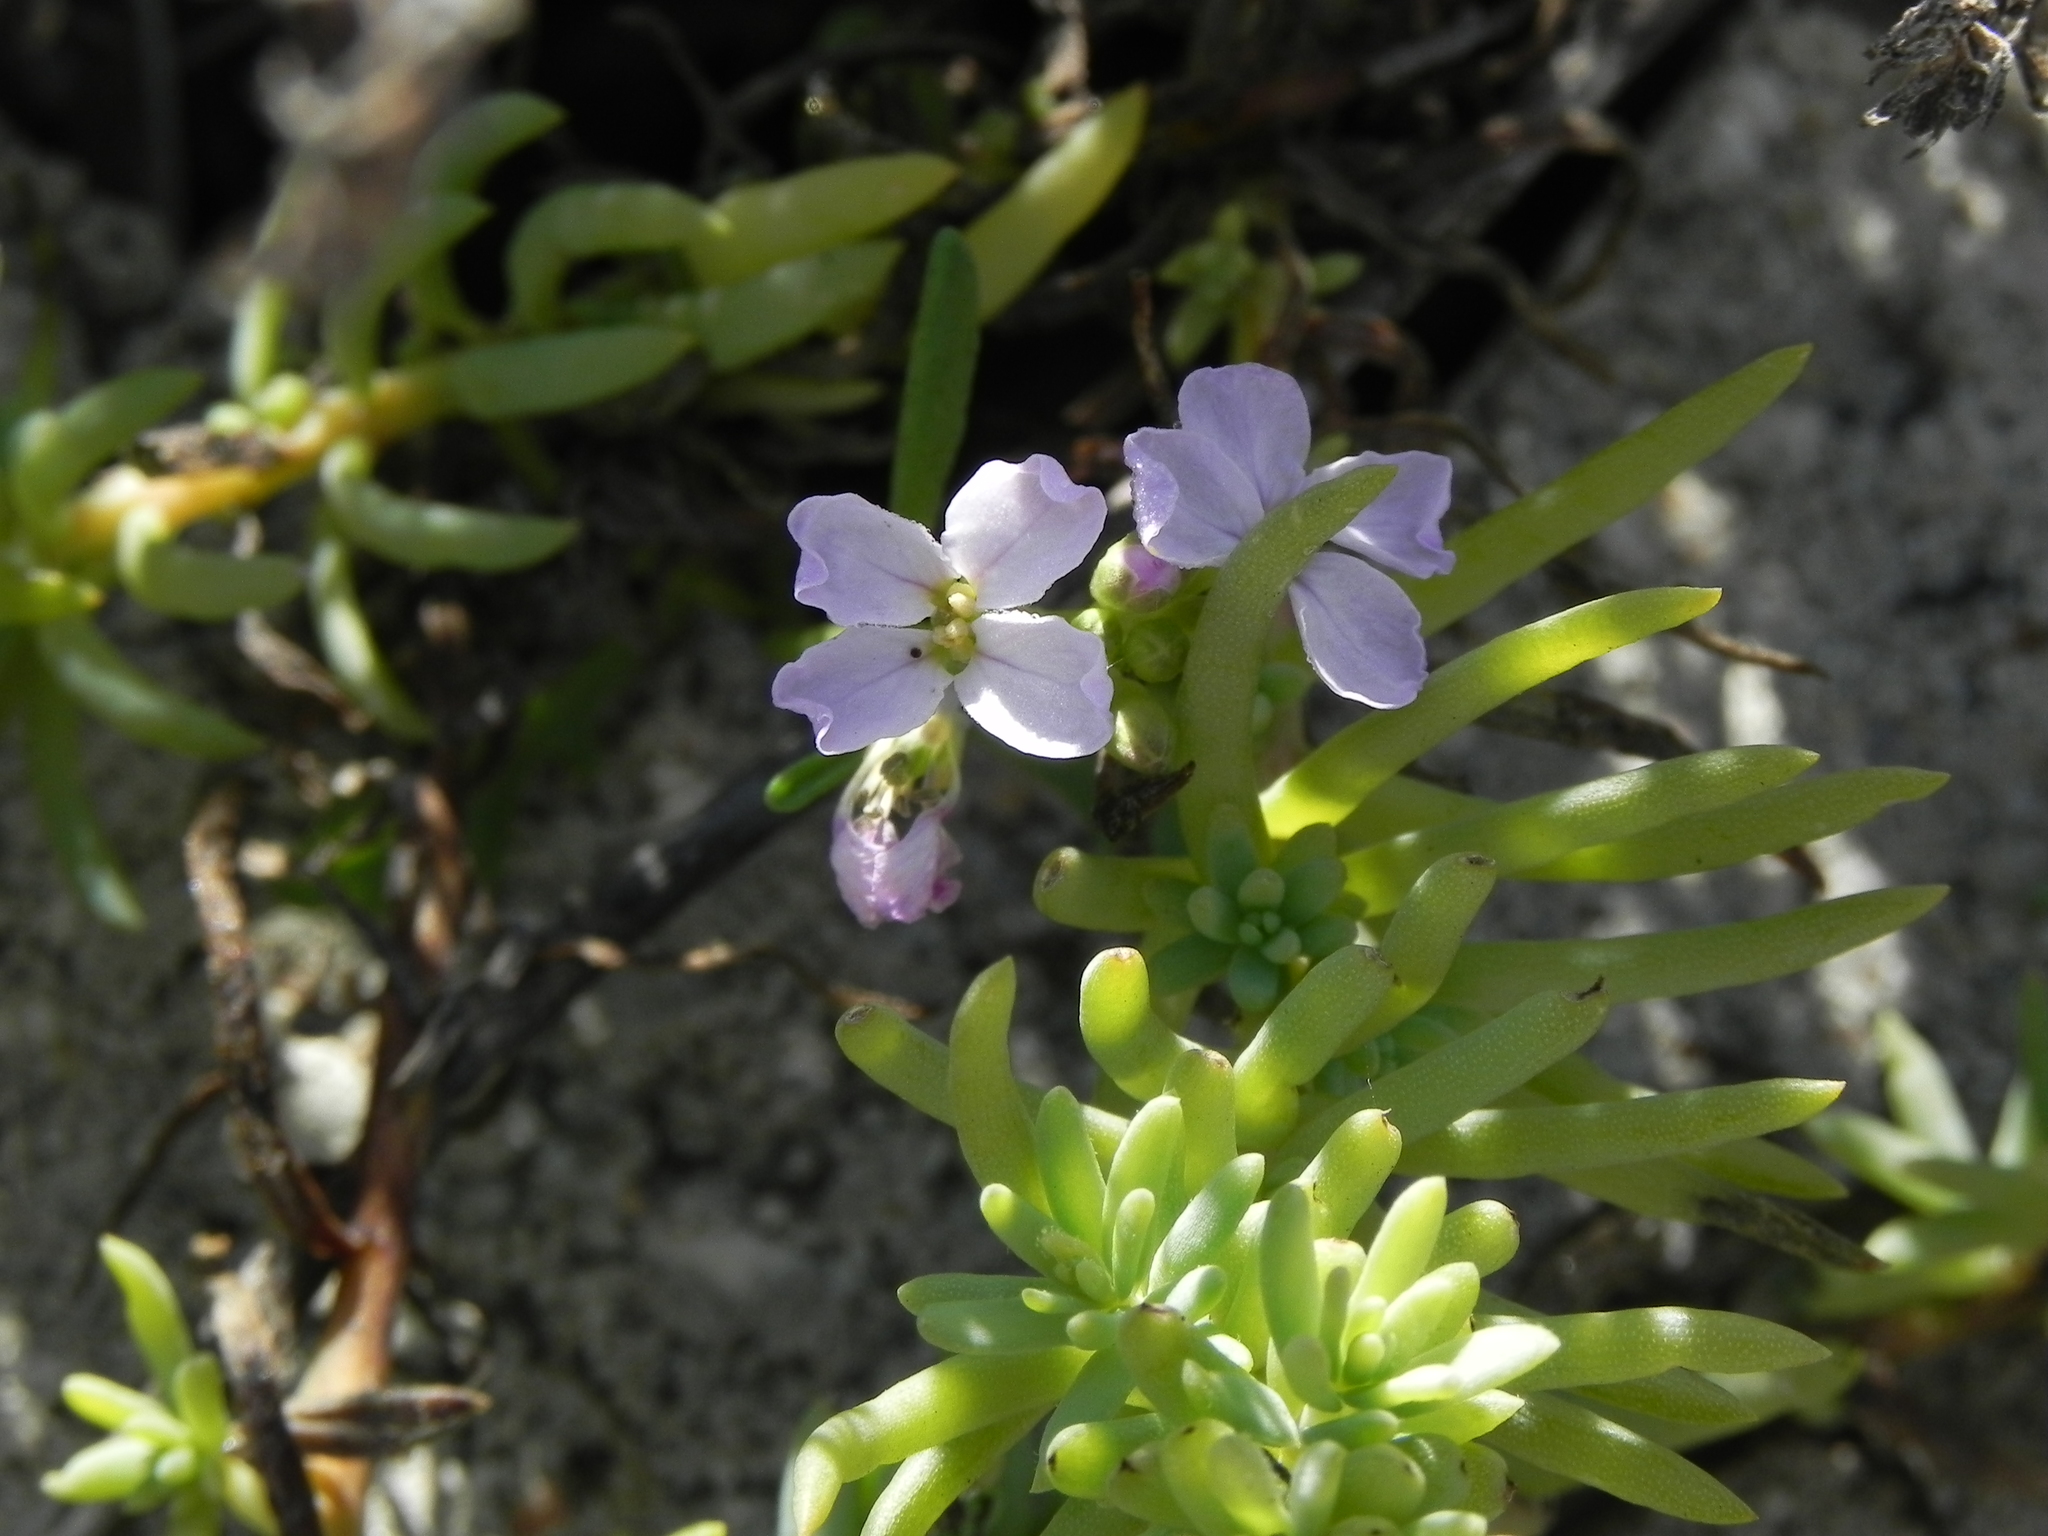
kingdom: Plantae
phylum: Tracheophyta
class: Magnoliopsida
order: Brassicales
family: Brassicaceae
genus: Cakile
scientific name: Cakile maritima
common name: Sea rocket
